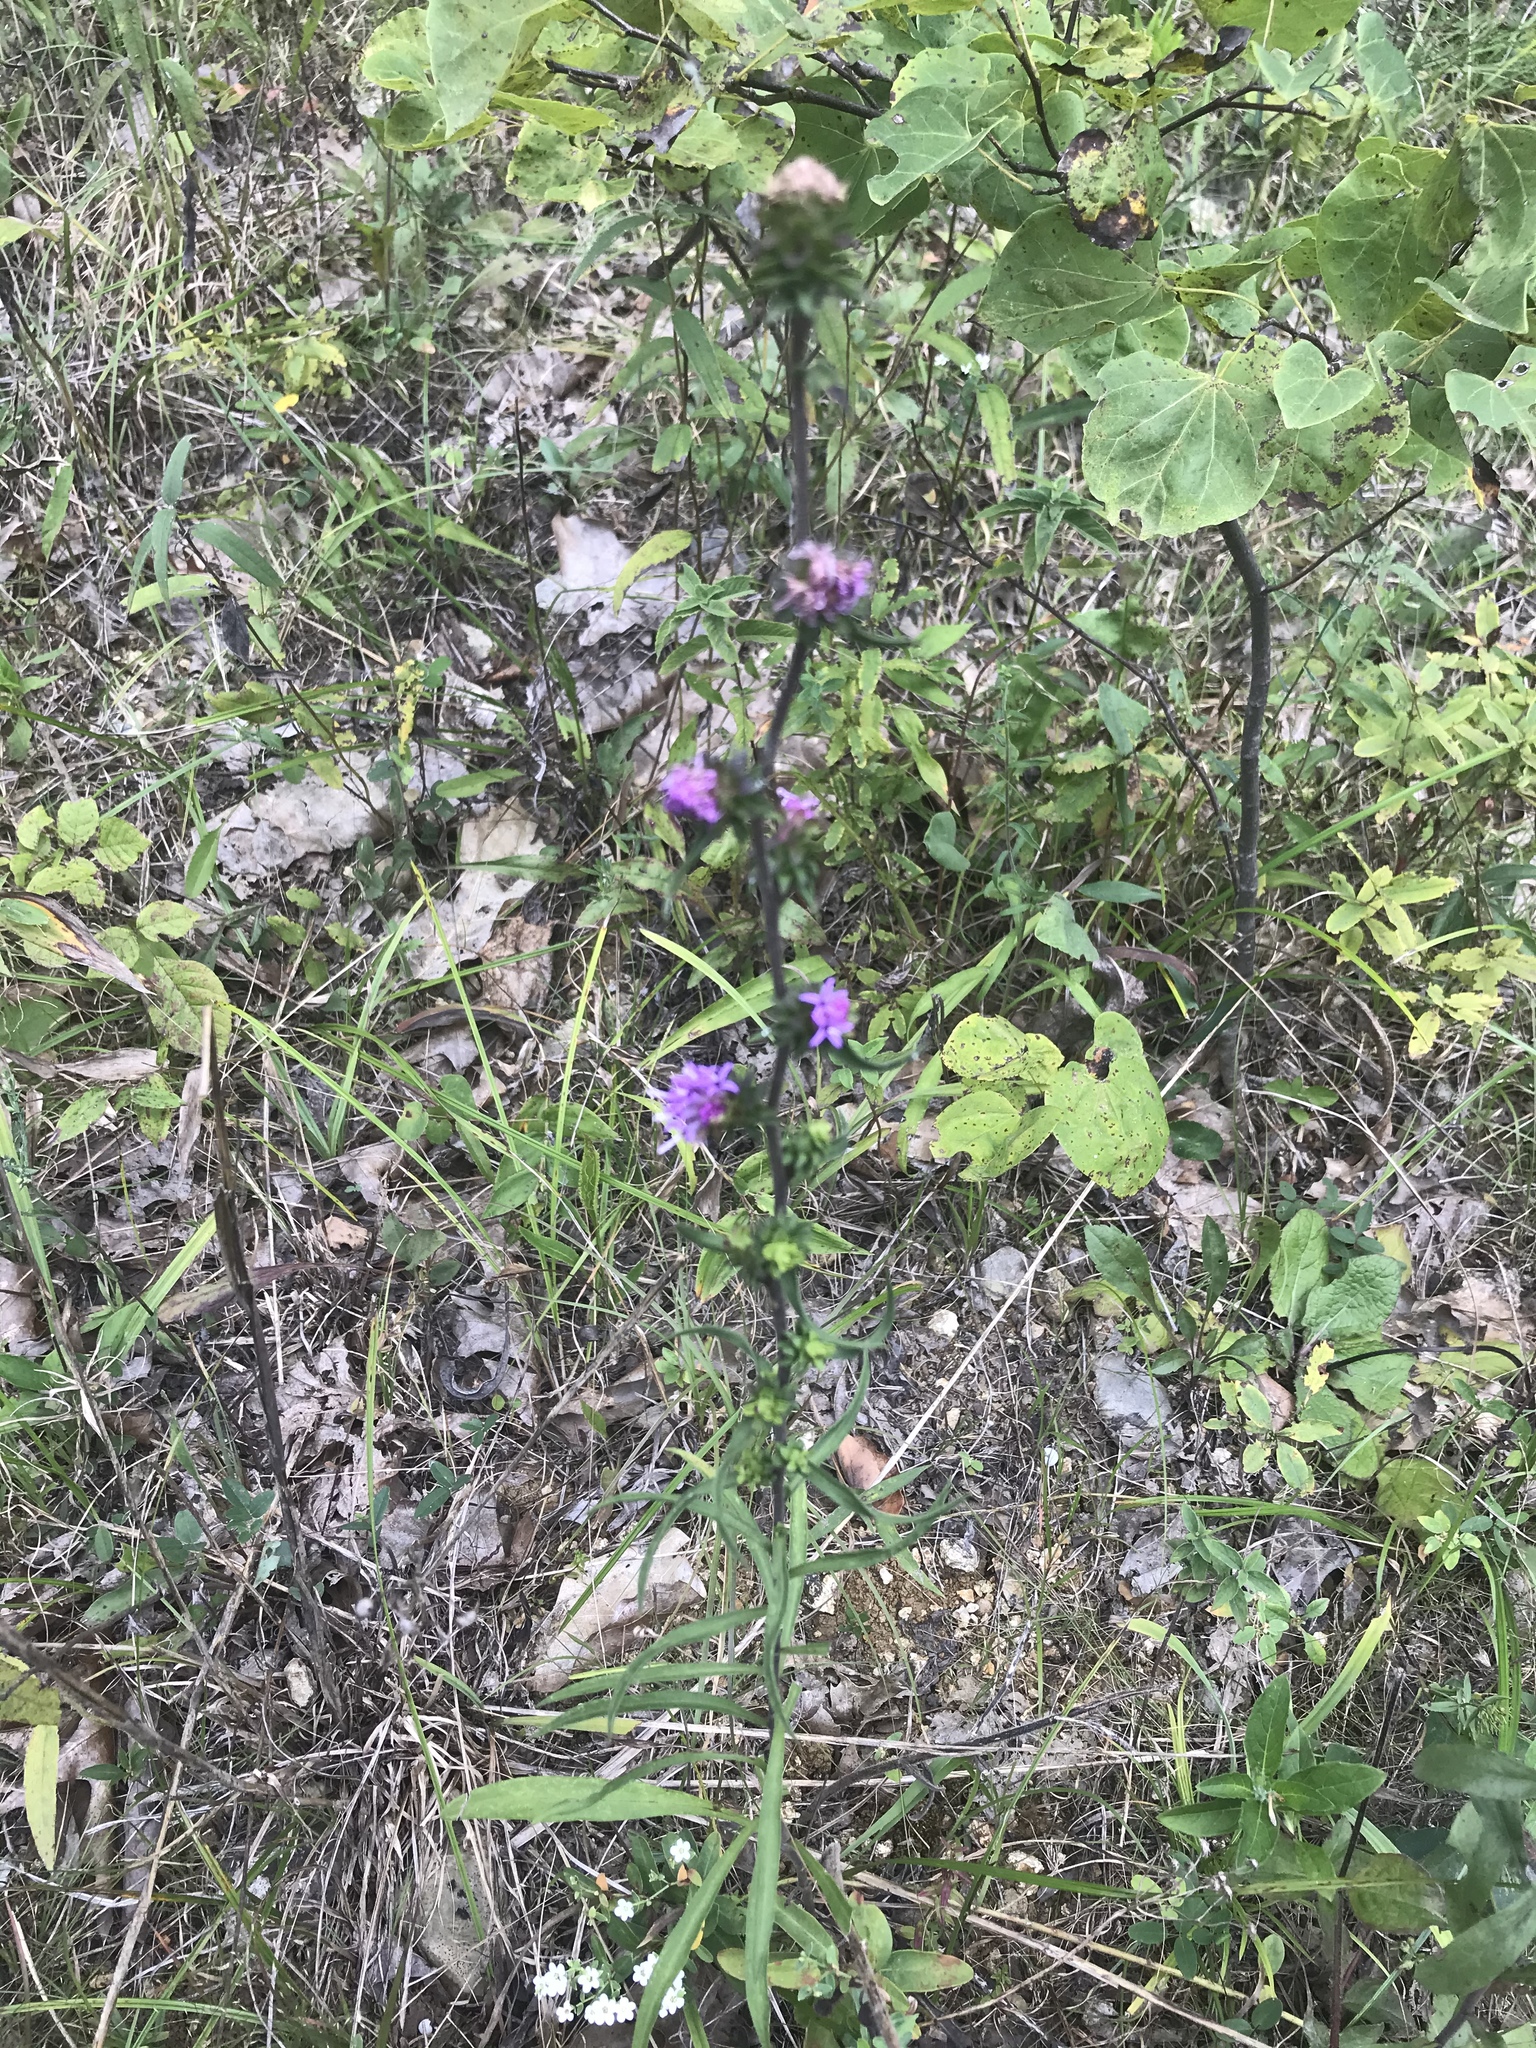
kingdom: Plantae
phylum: Tracheophyta
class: Magnoliopsida
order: Asterales
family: Asteraceae
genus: Liatris
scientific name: Liatris squarrulosa
